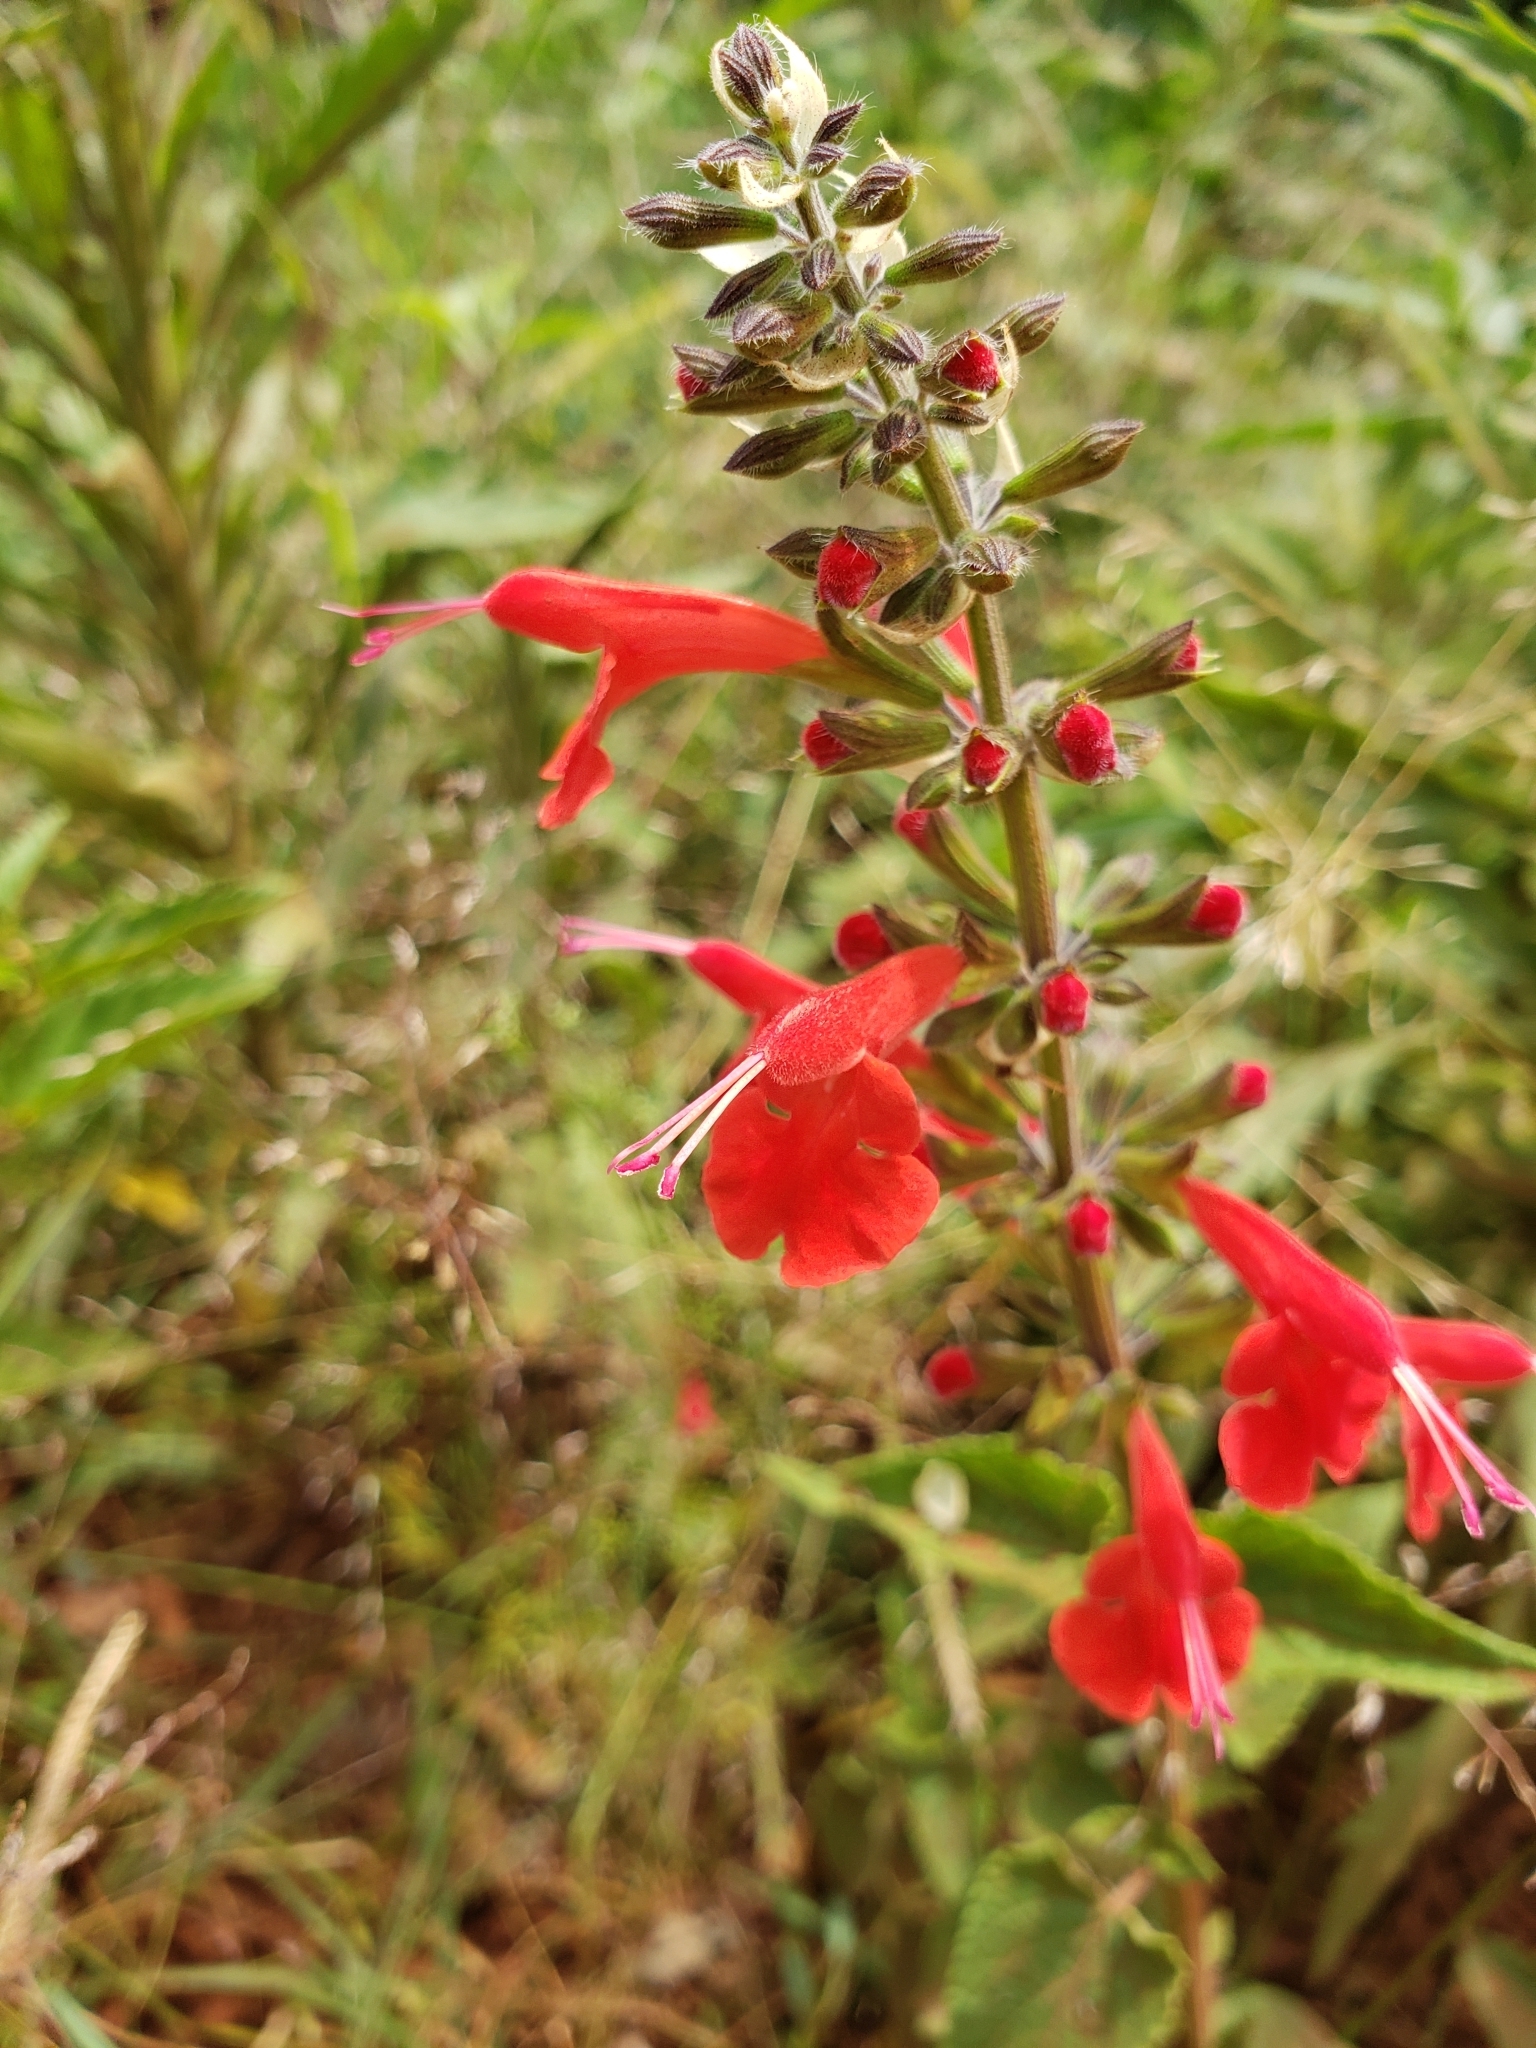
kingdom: Plantae
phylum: Tracheophyta
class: Magnoliopsida
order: Lamiales
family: Lamiaceae
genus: Salvia
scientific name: Salvia coccinea
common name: Blood sage
